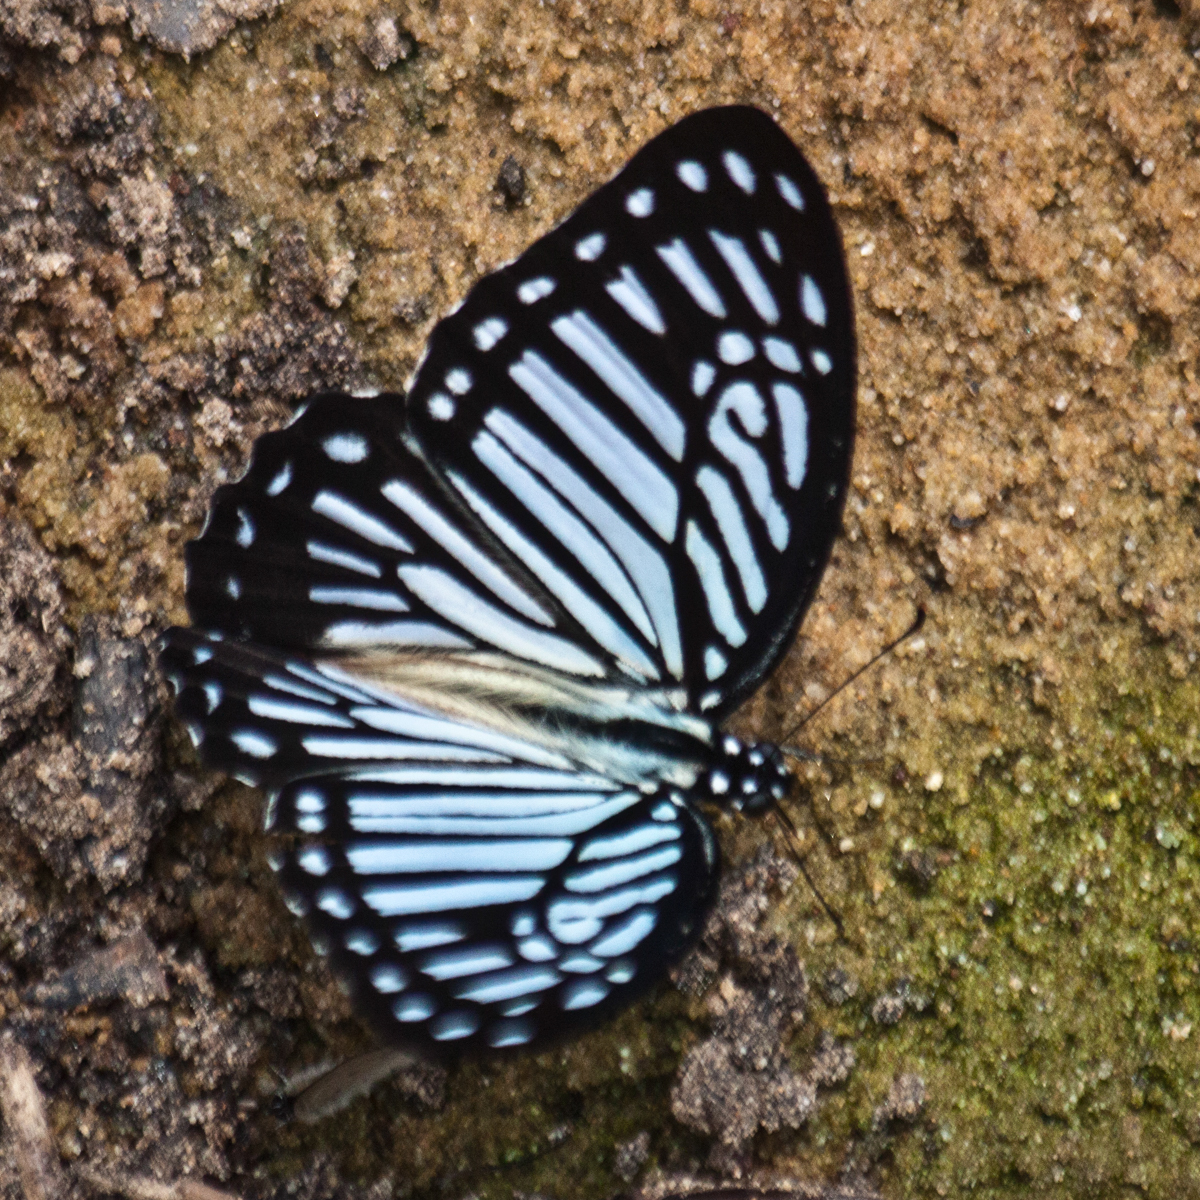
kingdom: Animalia
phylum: Arthropoda
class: Insecta
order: Lepidoptera
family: Papilionidae
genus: Graphium
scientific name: Graphium xenocles
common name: Great zebra
